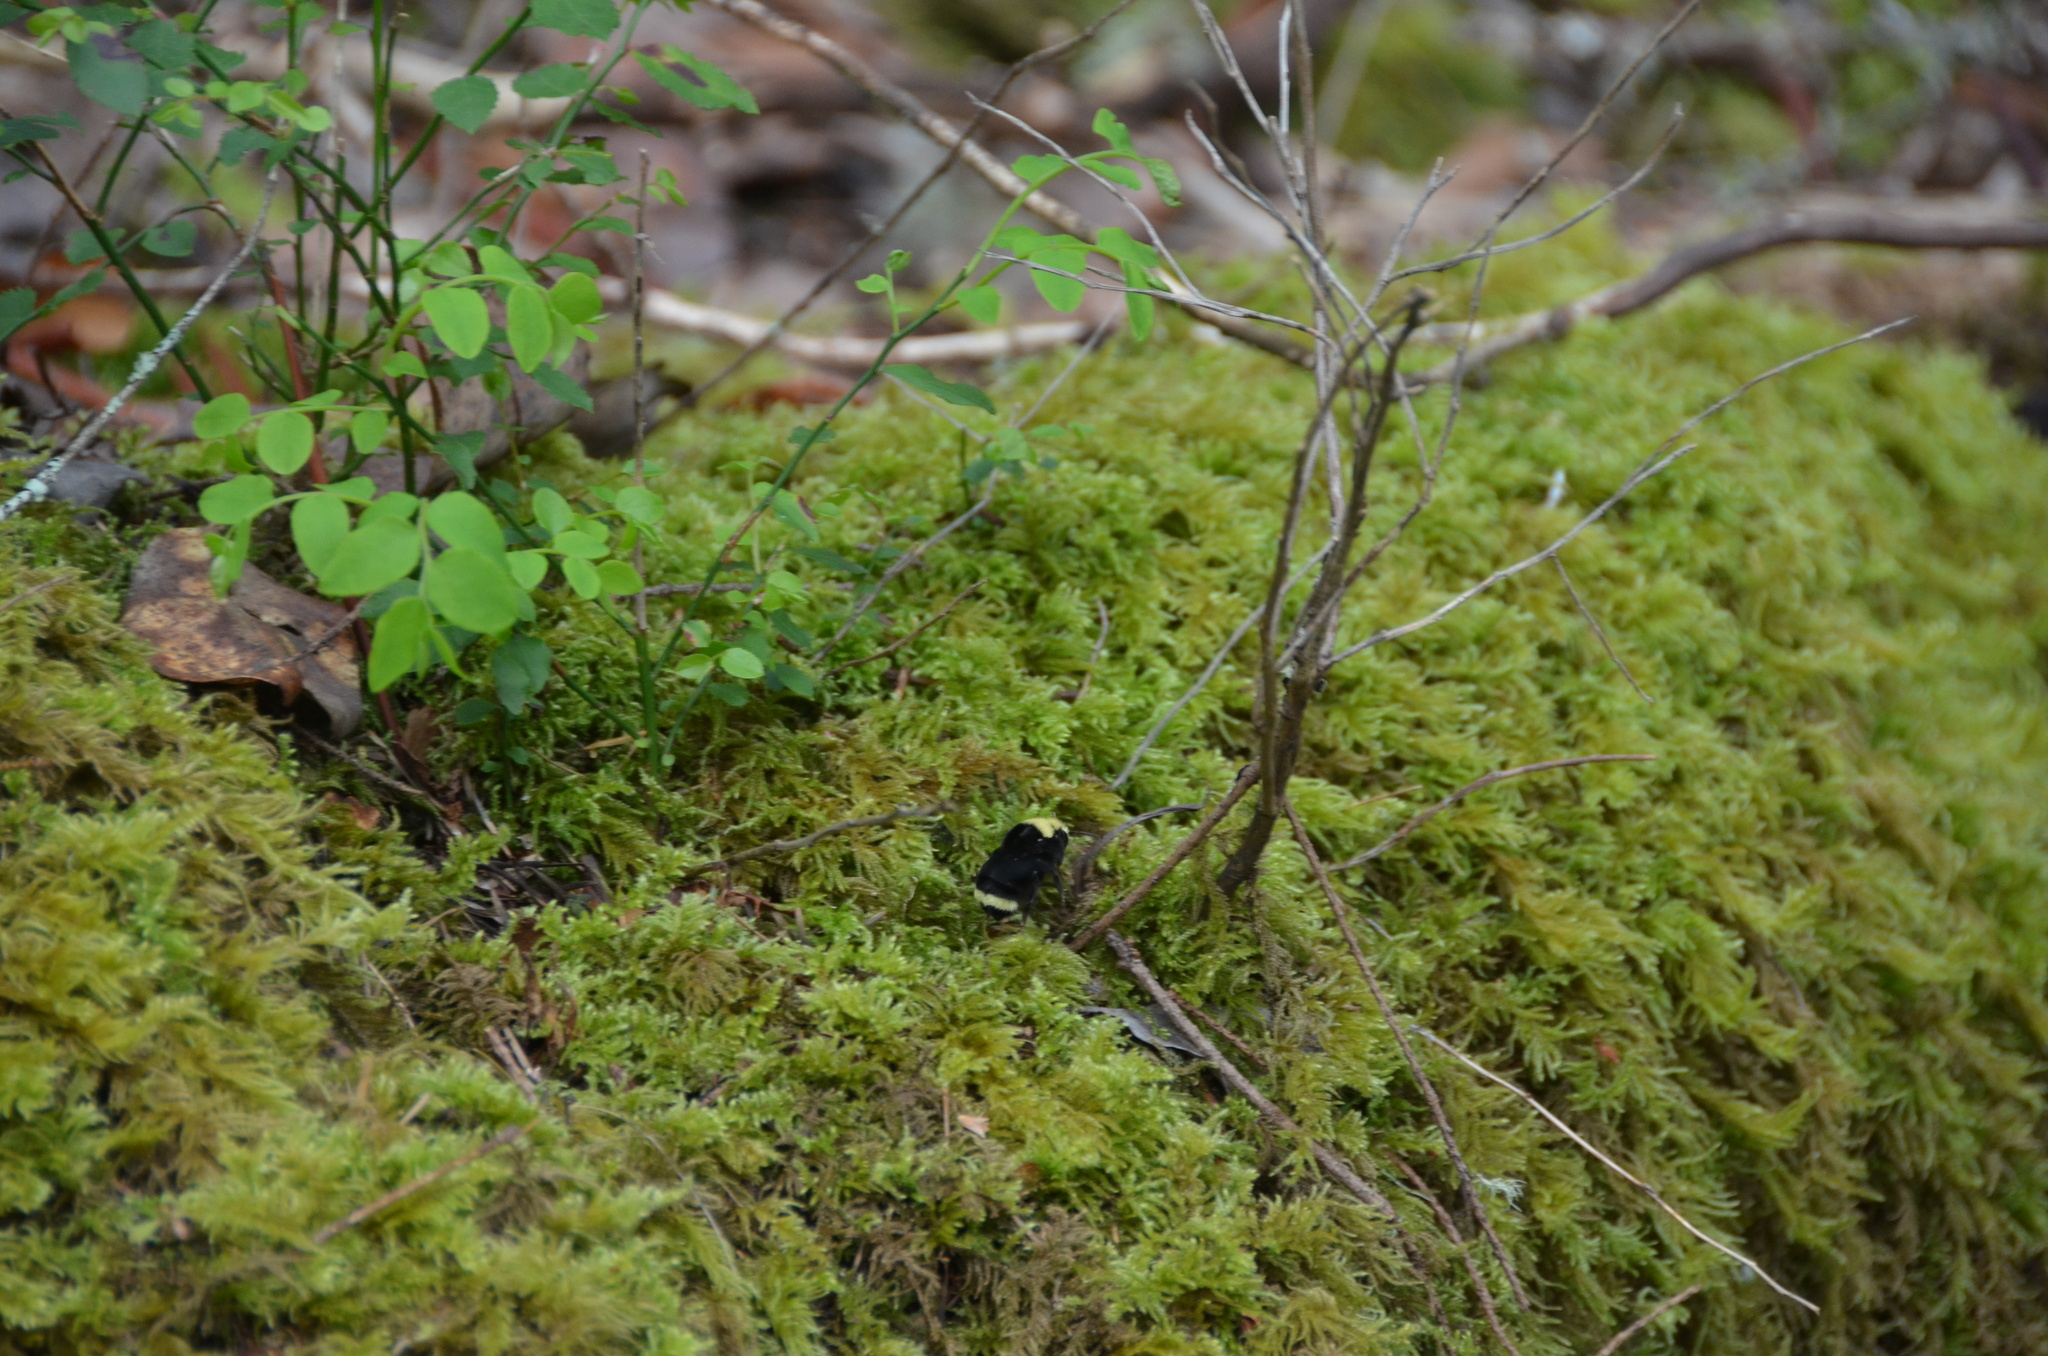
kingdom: Animalia
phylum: Arthropoda
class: Insecta
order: Hymenoptera
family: Apidae
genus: Bombus
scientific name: Bombus vosnesenskii
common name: Vosnesensky bumble bee
